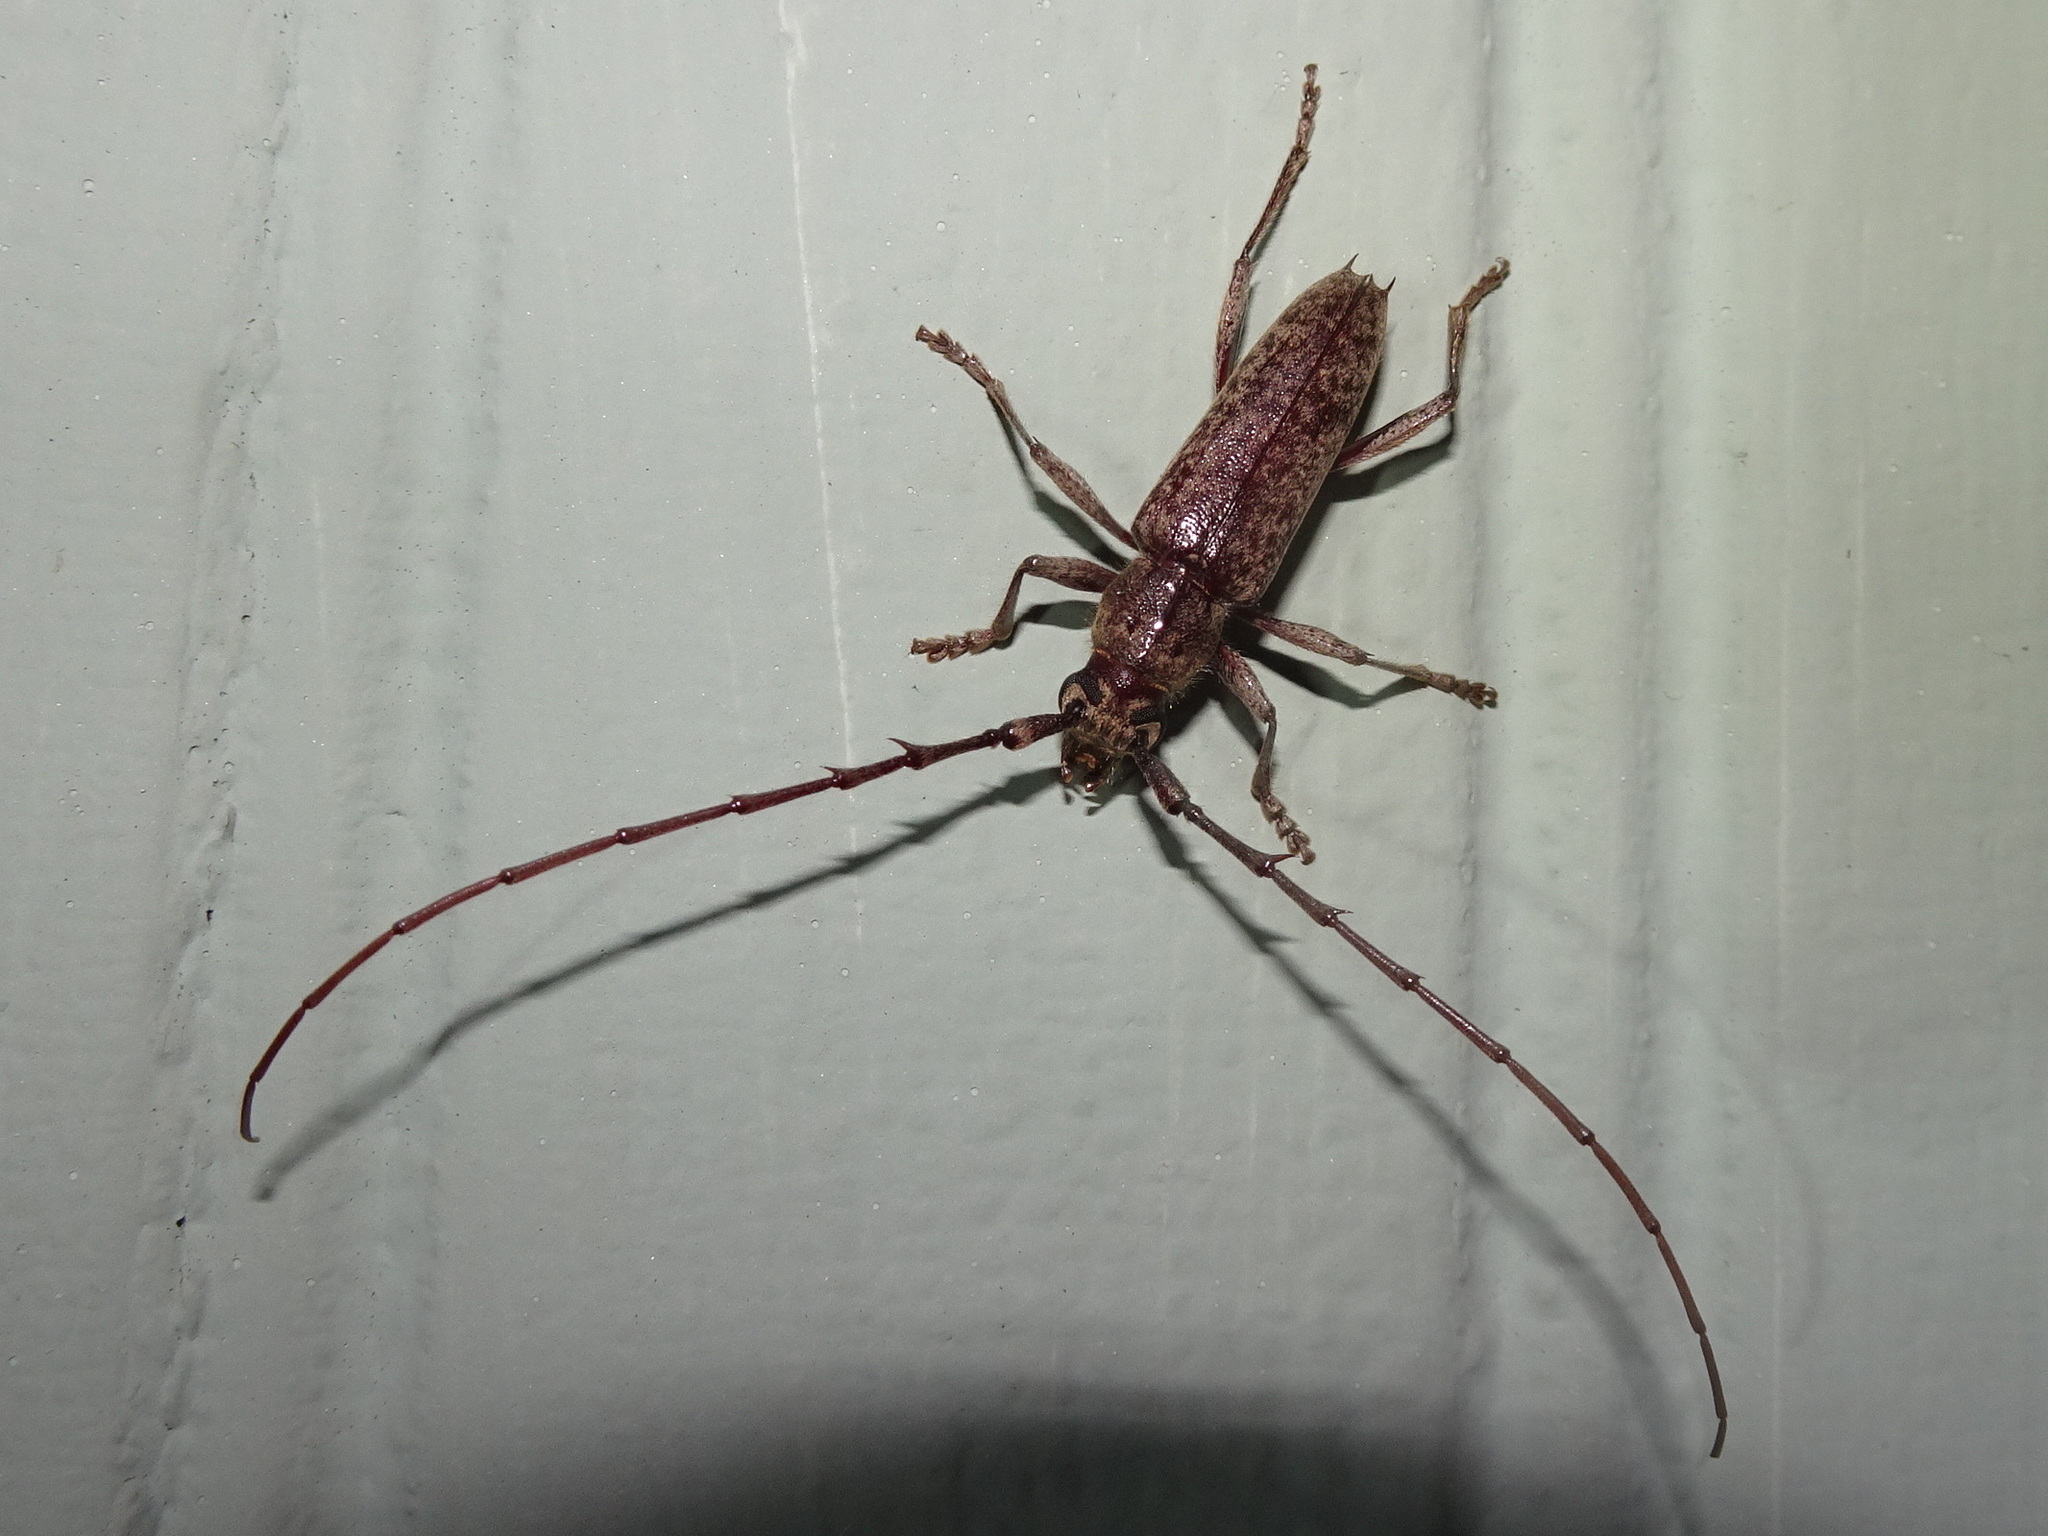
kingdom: Animalia
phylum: Arthropoda
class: Insecta
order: Coleoptera
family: Cerambycidae
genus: Elaphidion
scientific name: Elaphidion mucronatum
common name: Spined oak borer
